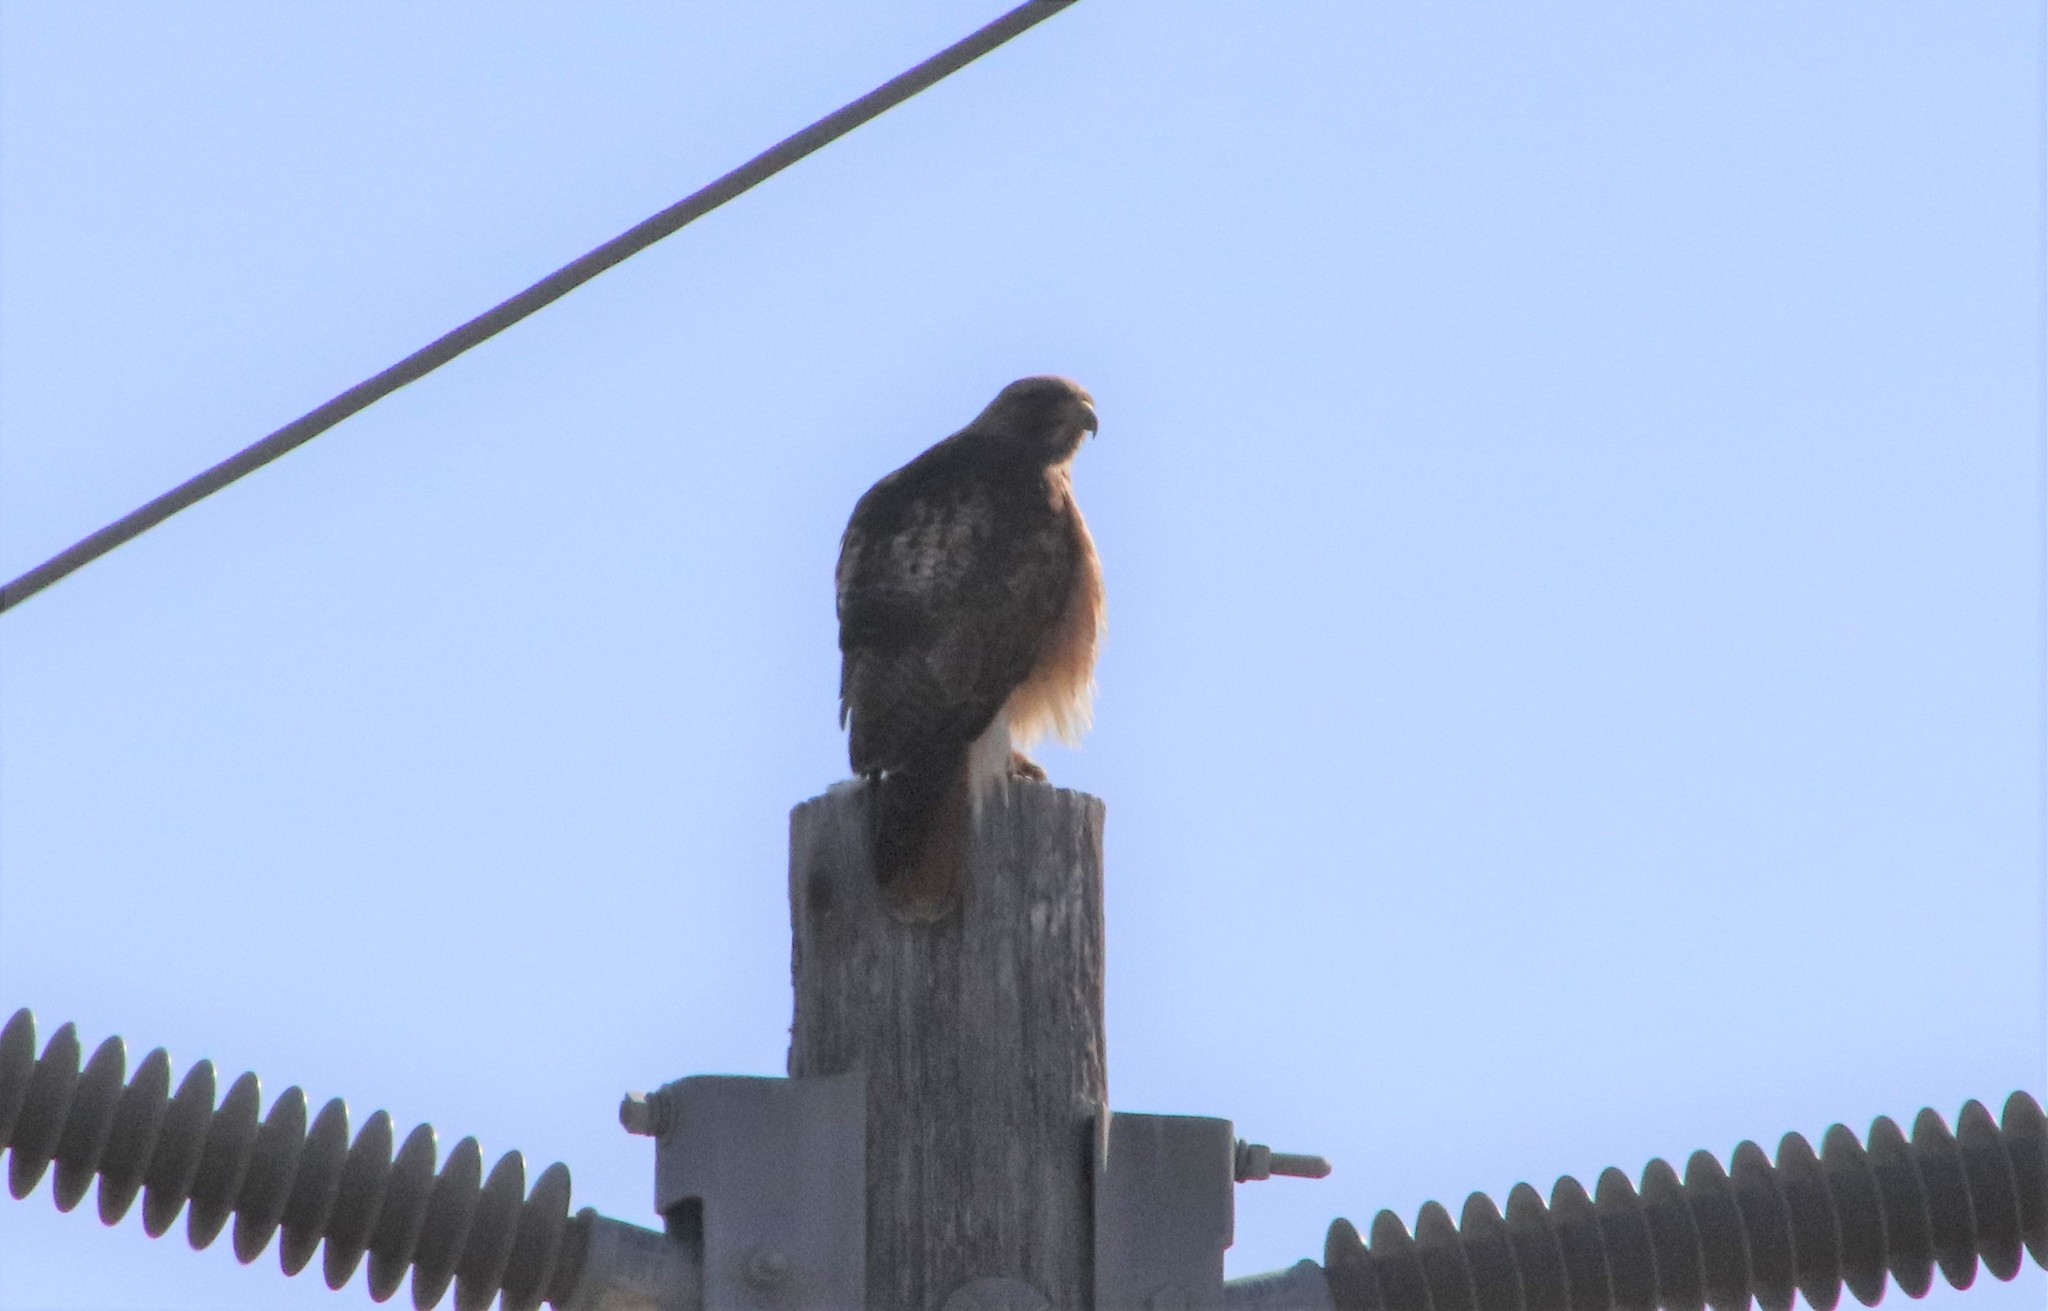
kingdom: Animalia
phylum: Chordata
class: Aves
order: Accipitriformes
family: Accipitridae
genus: Buteo
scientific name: Buteo jamaicensis
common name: Red-tailed hawk
